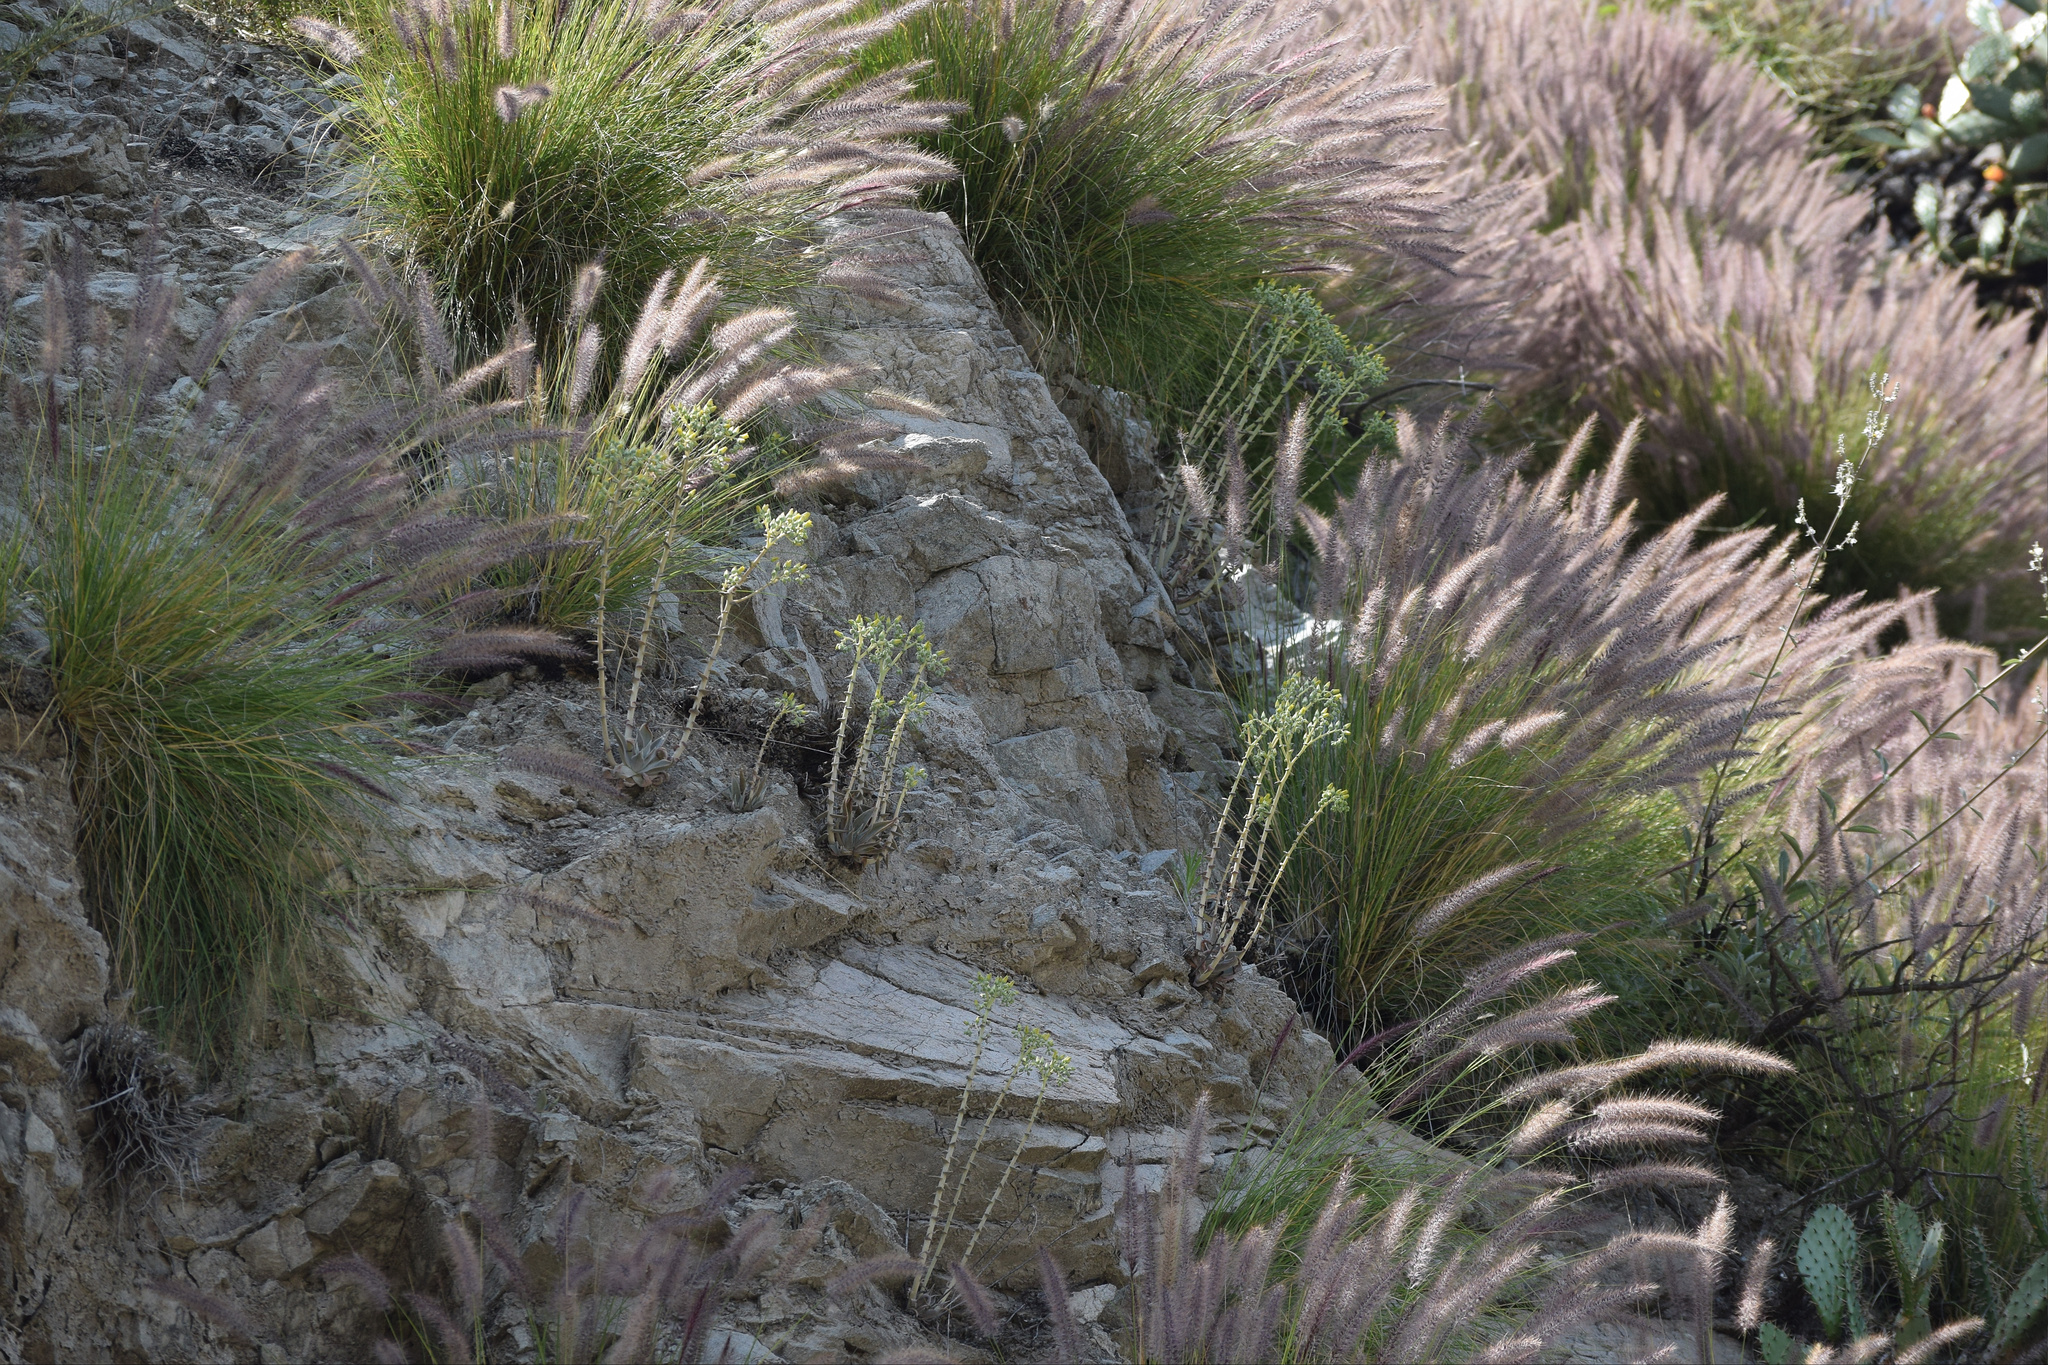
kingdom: Plantae
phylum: Tracheophyta
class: Magnoliopsida
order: Saxifragales
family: Crassulaceae
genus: Dudleya
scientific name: Dudleya lanceolata
